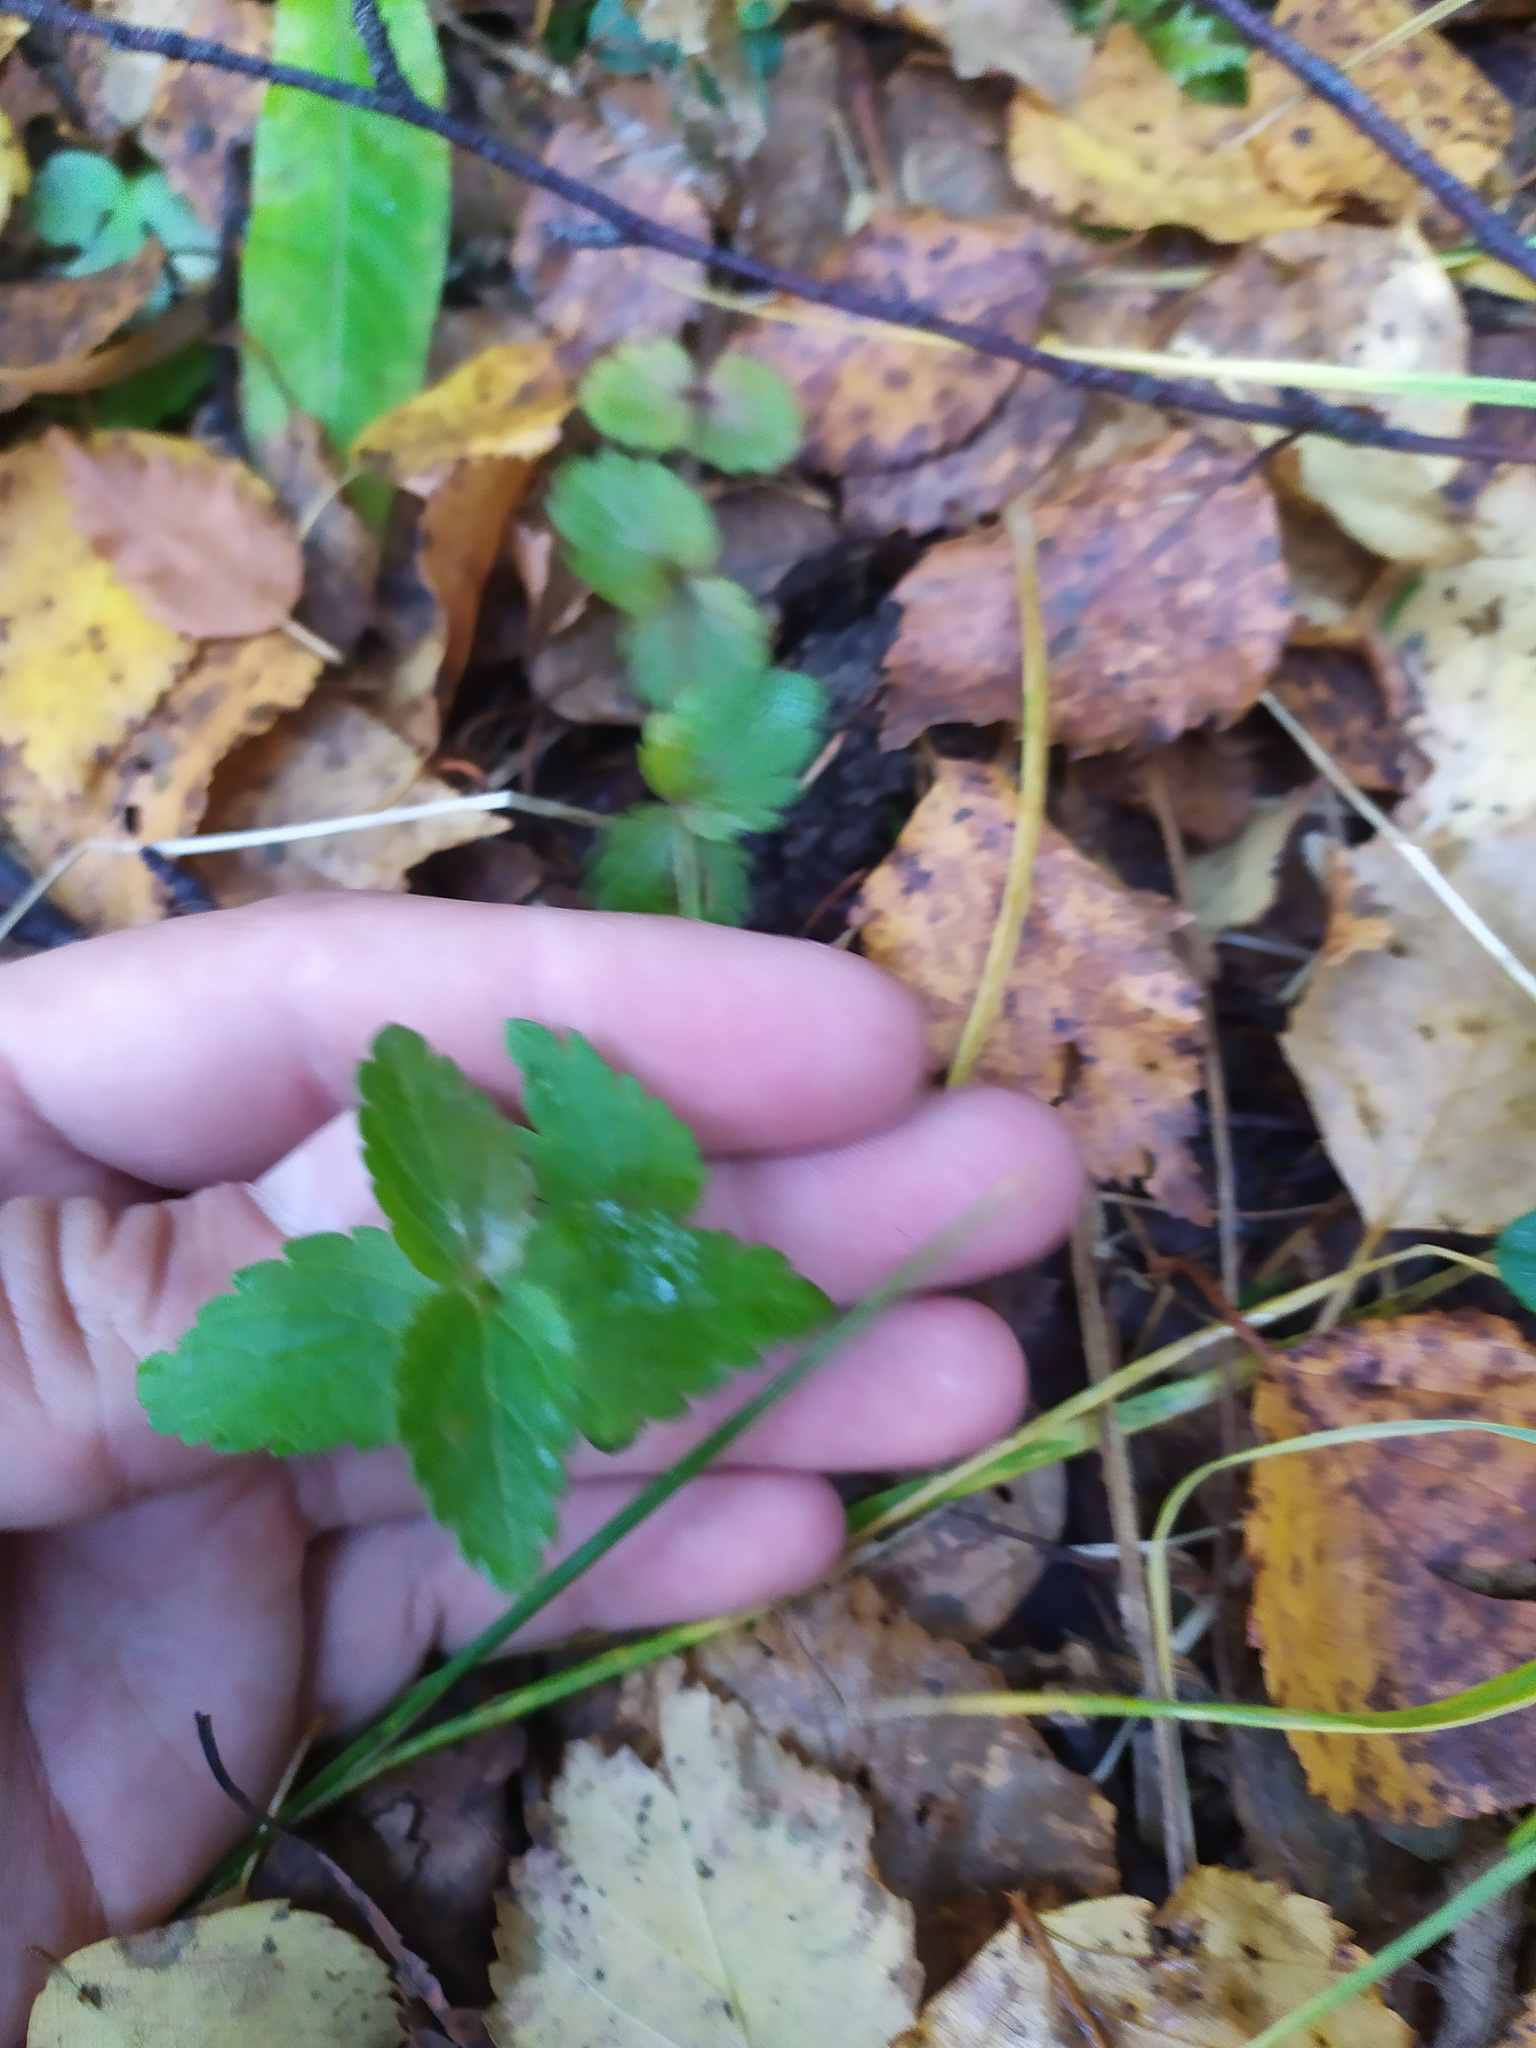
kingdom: Plantae
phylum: Tracheophyta
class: Magnoliopsida
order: Lamiales
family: Plantaginaceae
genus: Veronica
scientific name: Veronica chamaedrys
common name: Germander speedwell
